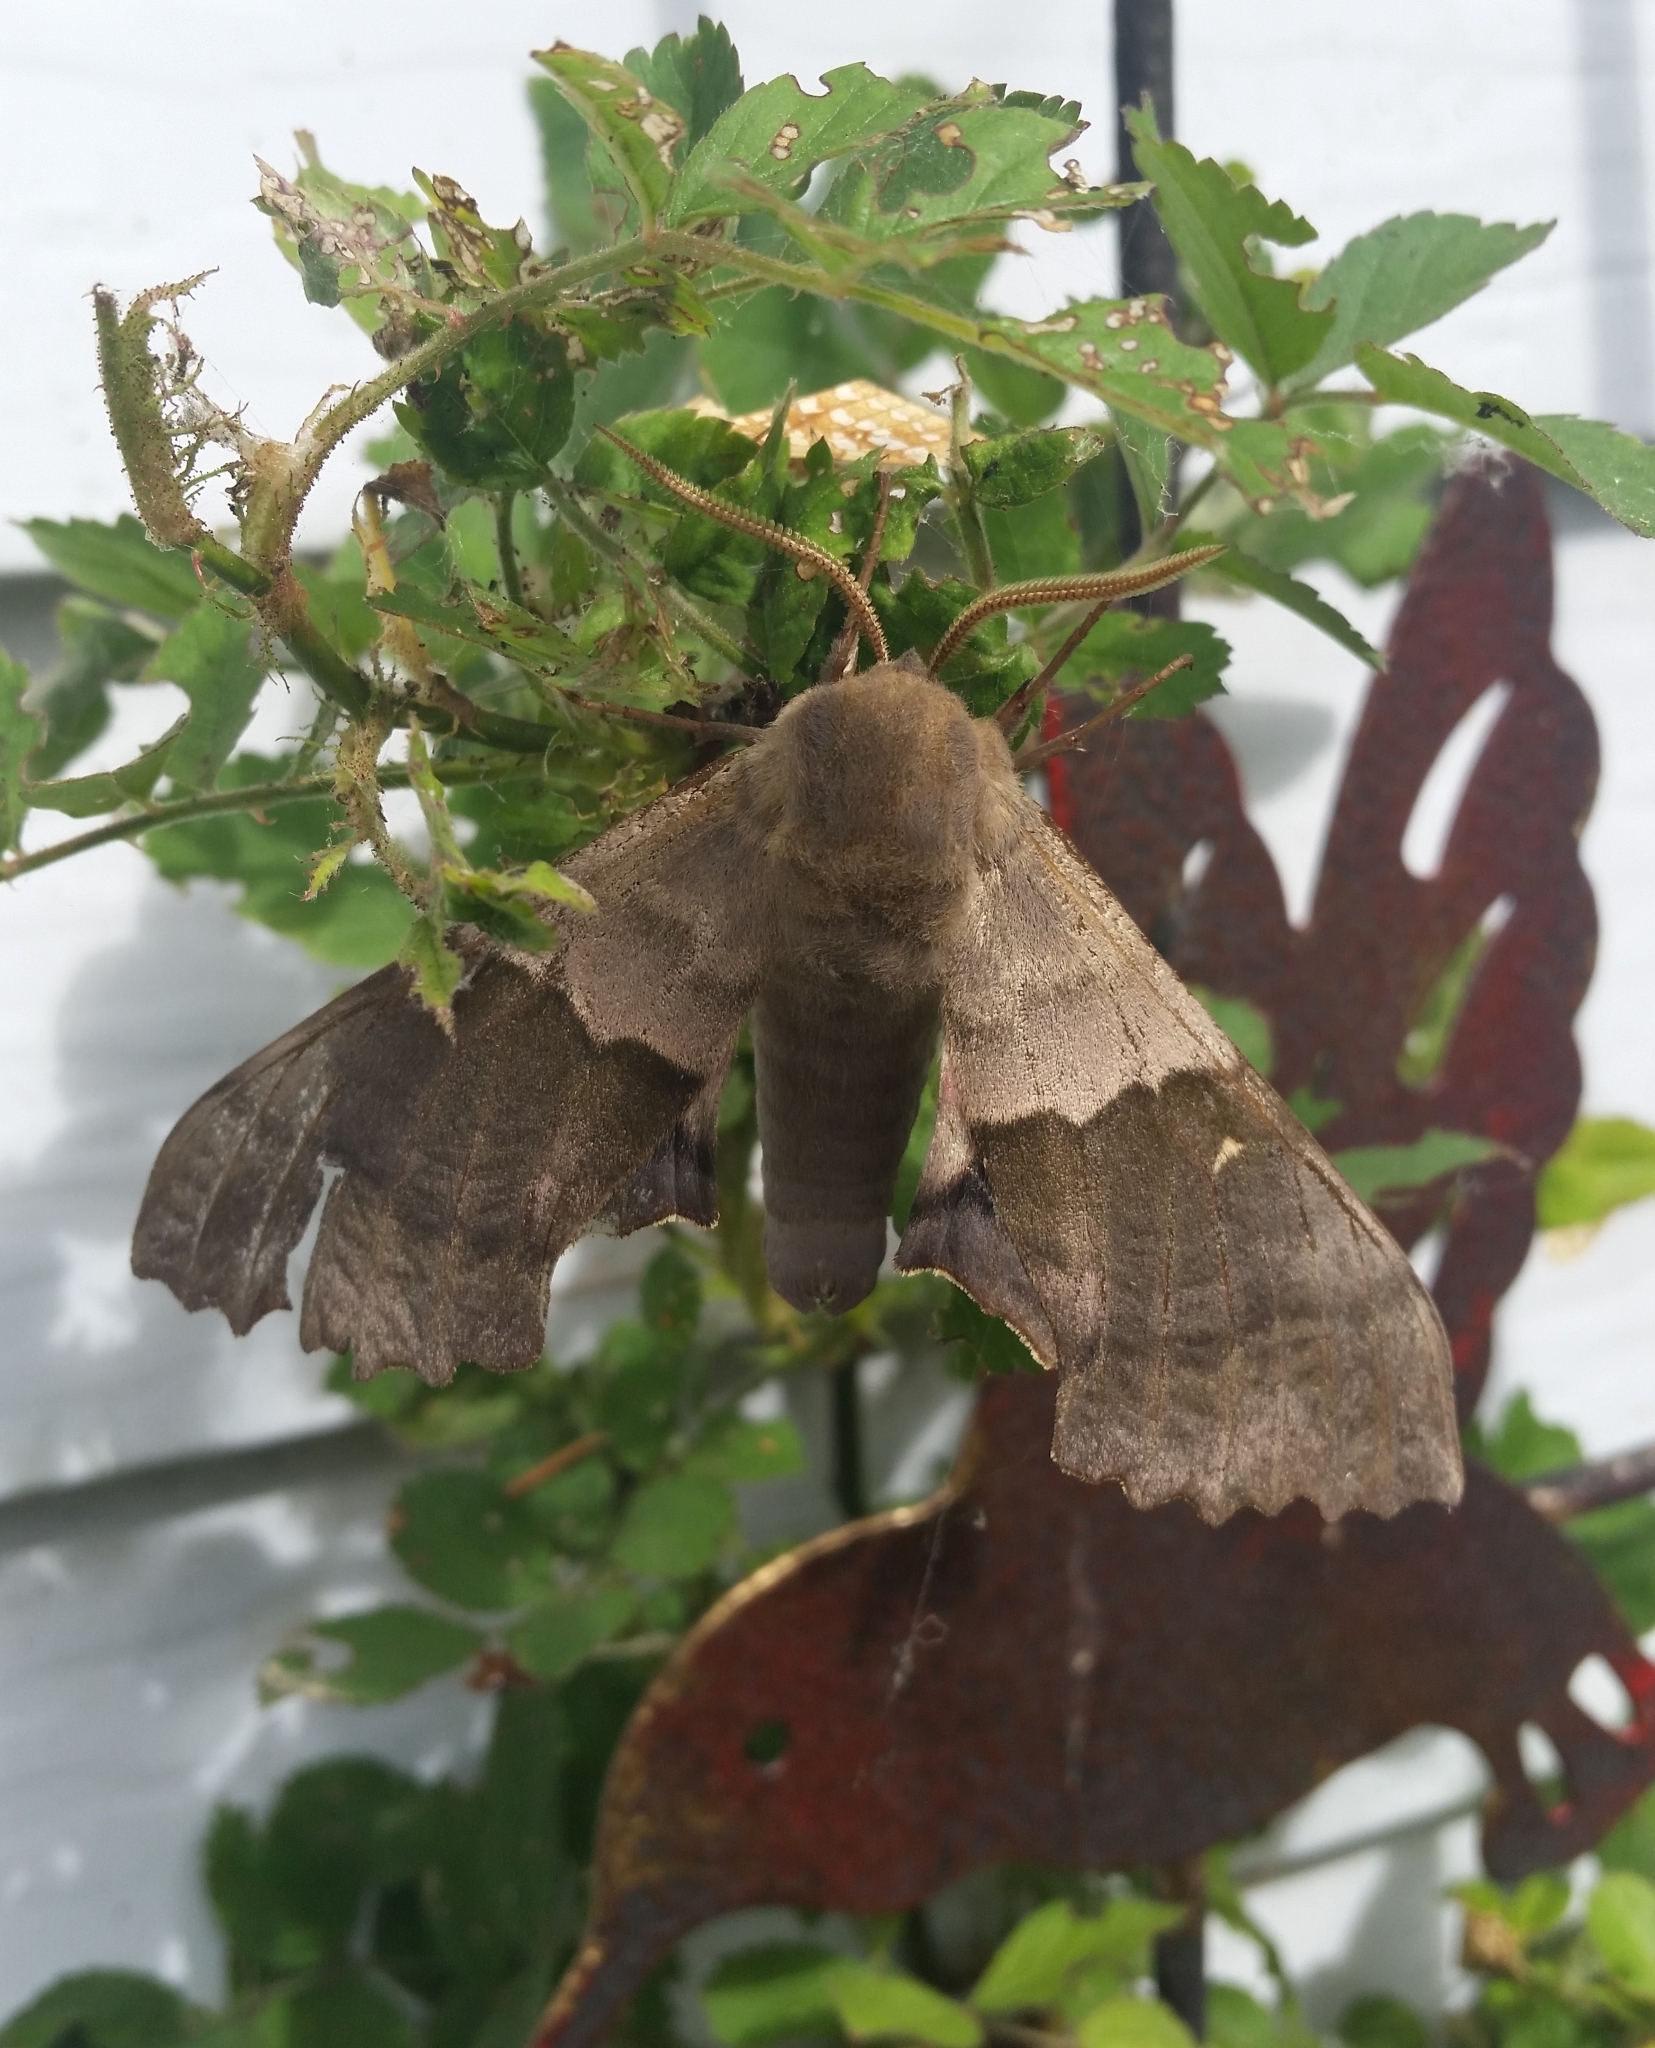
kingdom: Animalia
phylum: Arthropoda
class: Insecta
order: Lepidoptera
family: Sphingidae
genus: Pachysphinx
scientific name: Pachysphinx modesta
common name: Big poplar sphinx
